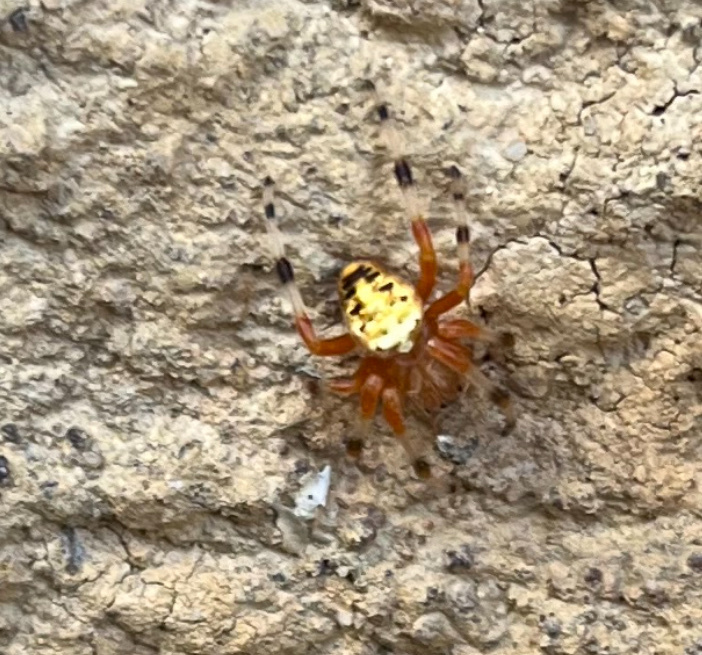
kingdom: Animalia
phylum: Arthropoda
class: Arachnida
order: Araneae
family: Araneidae
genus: Araneus
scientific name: Araneus marmoreus
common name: Marbled orbweaver
